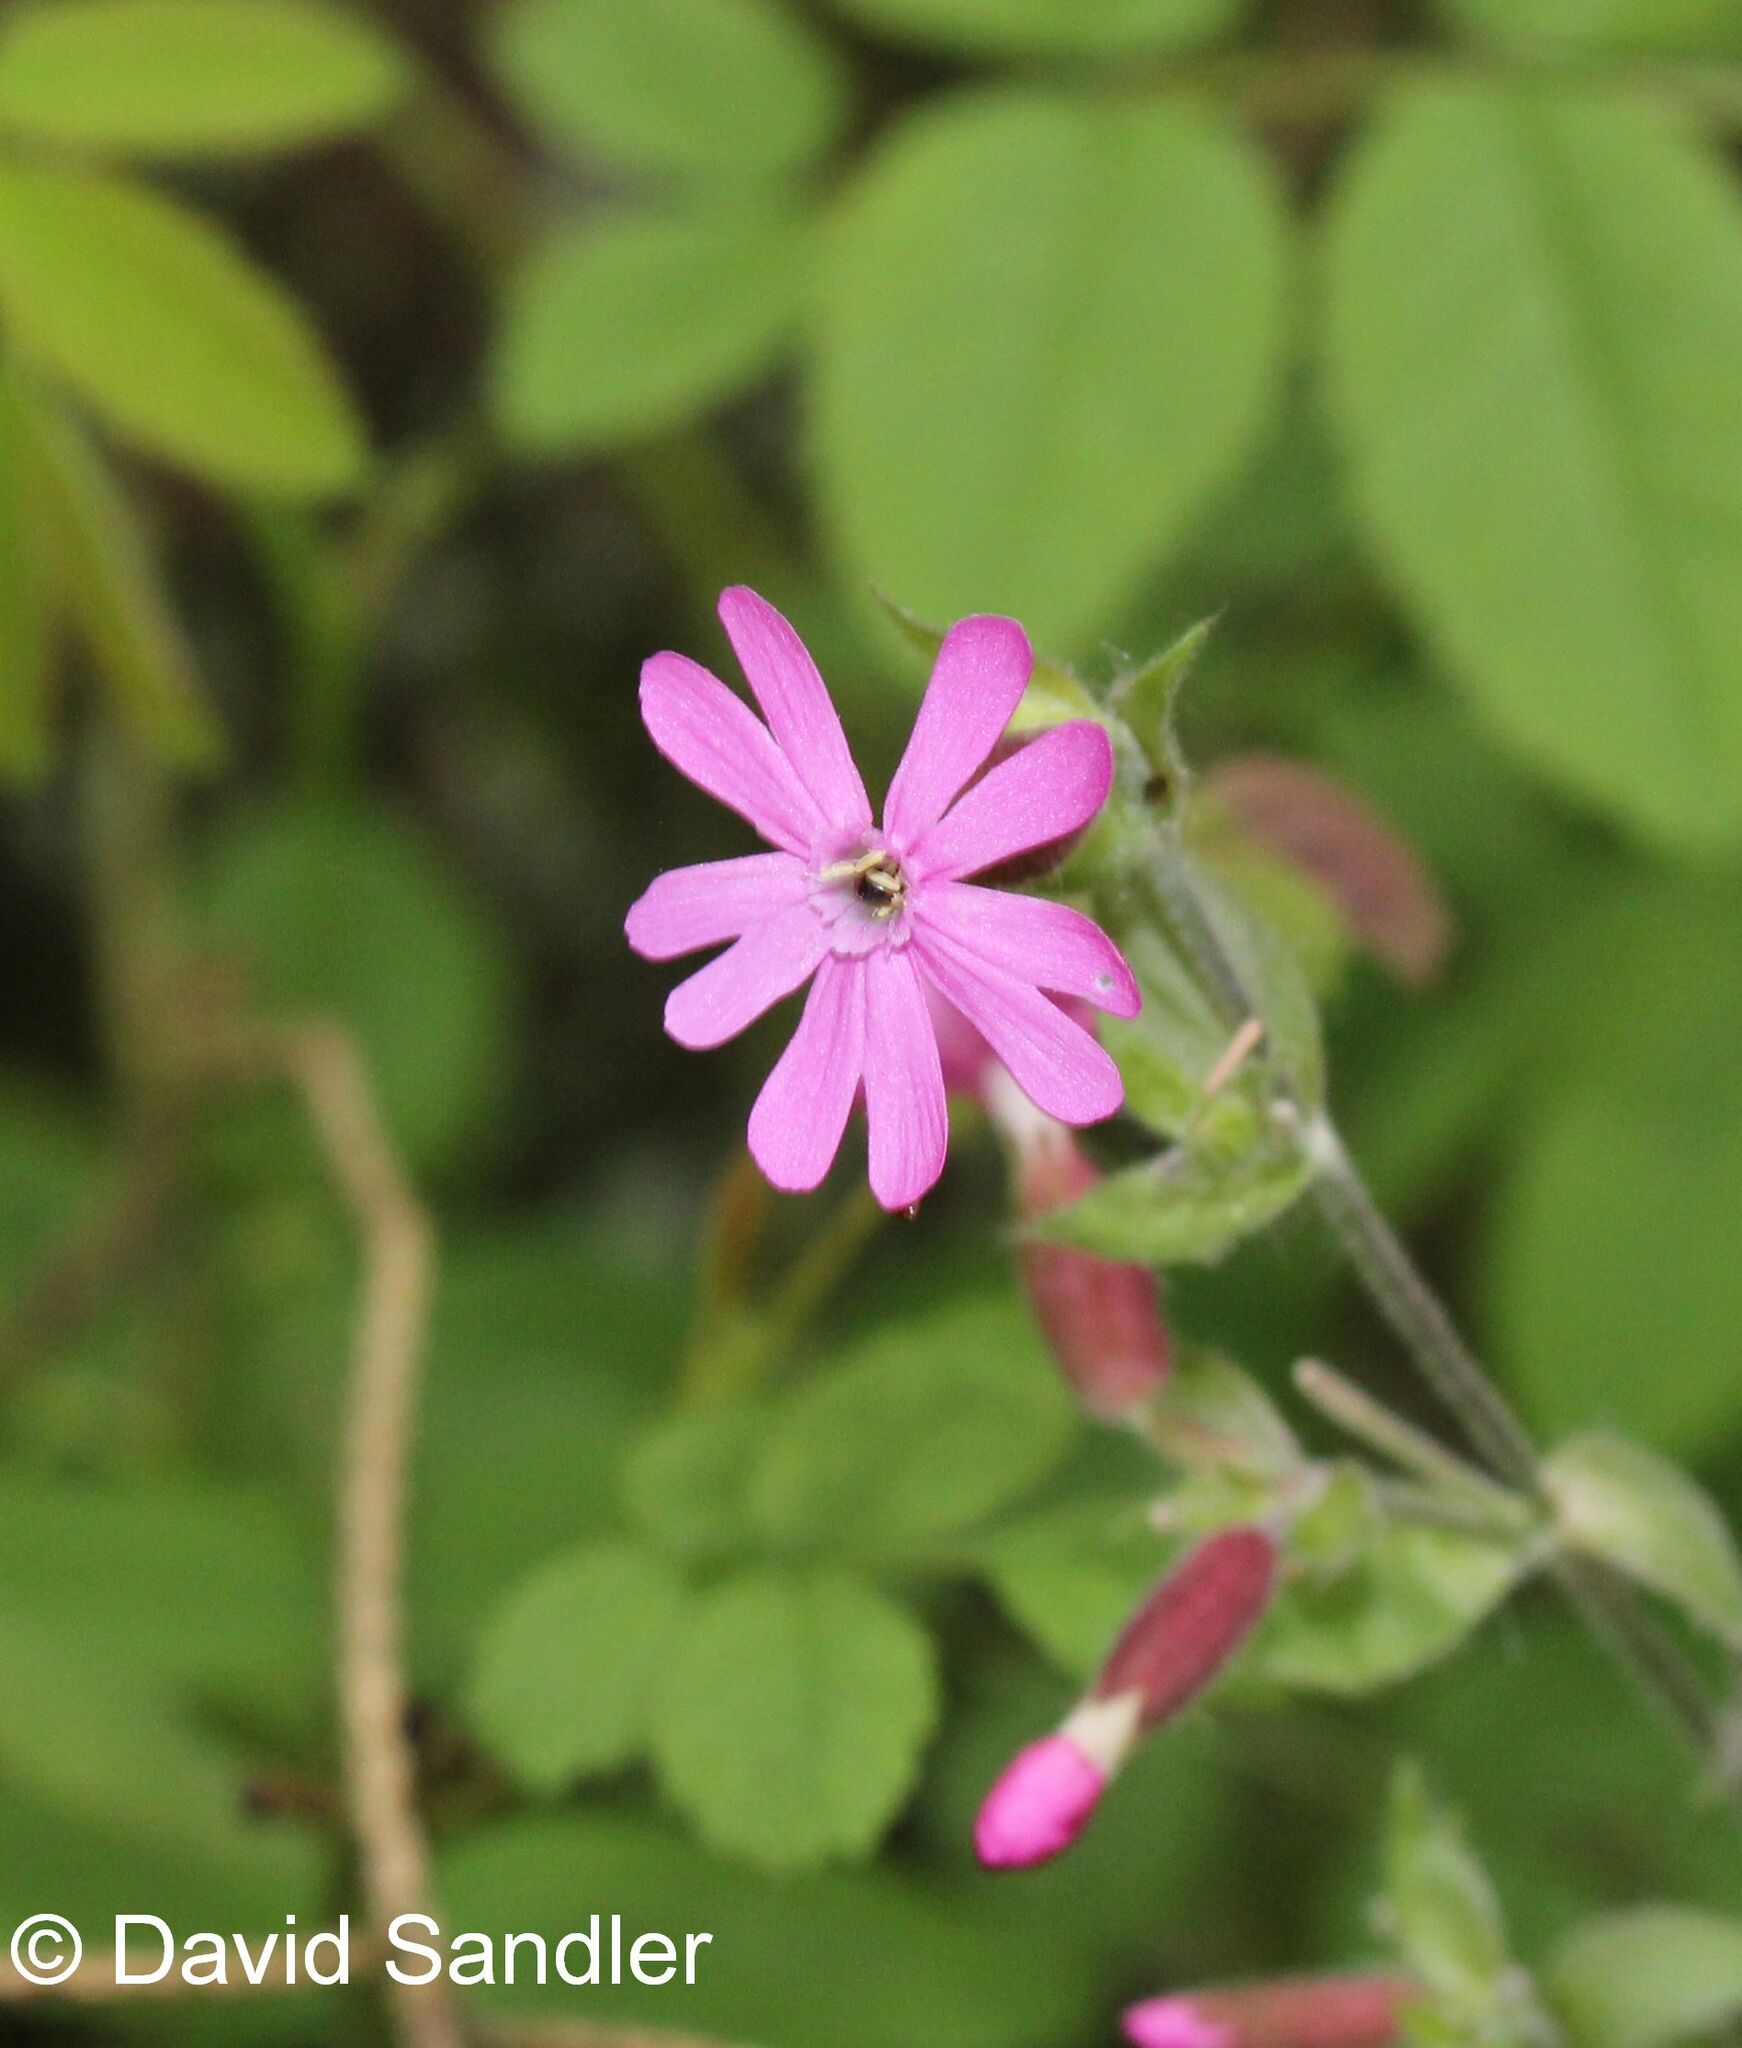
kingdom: Plantae
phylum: Tracheophyta
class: Magnoliopsida
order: Caryophyllales
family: Caryophyllaceae
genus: Silene
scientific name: Silene dioica
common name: Red campion
